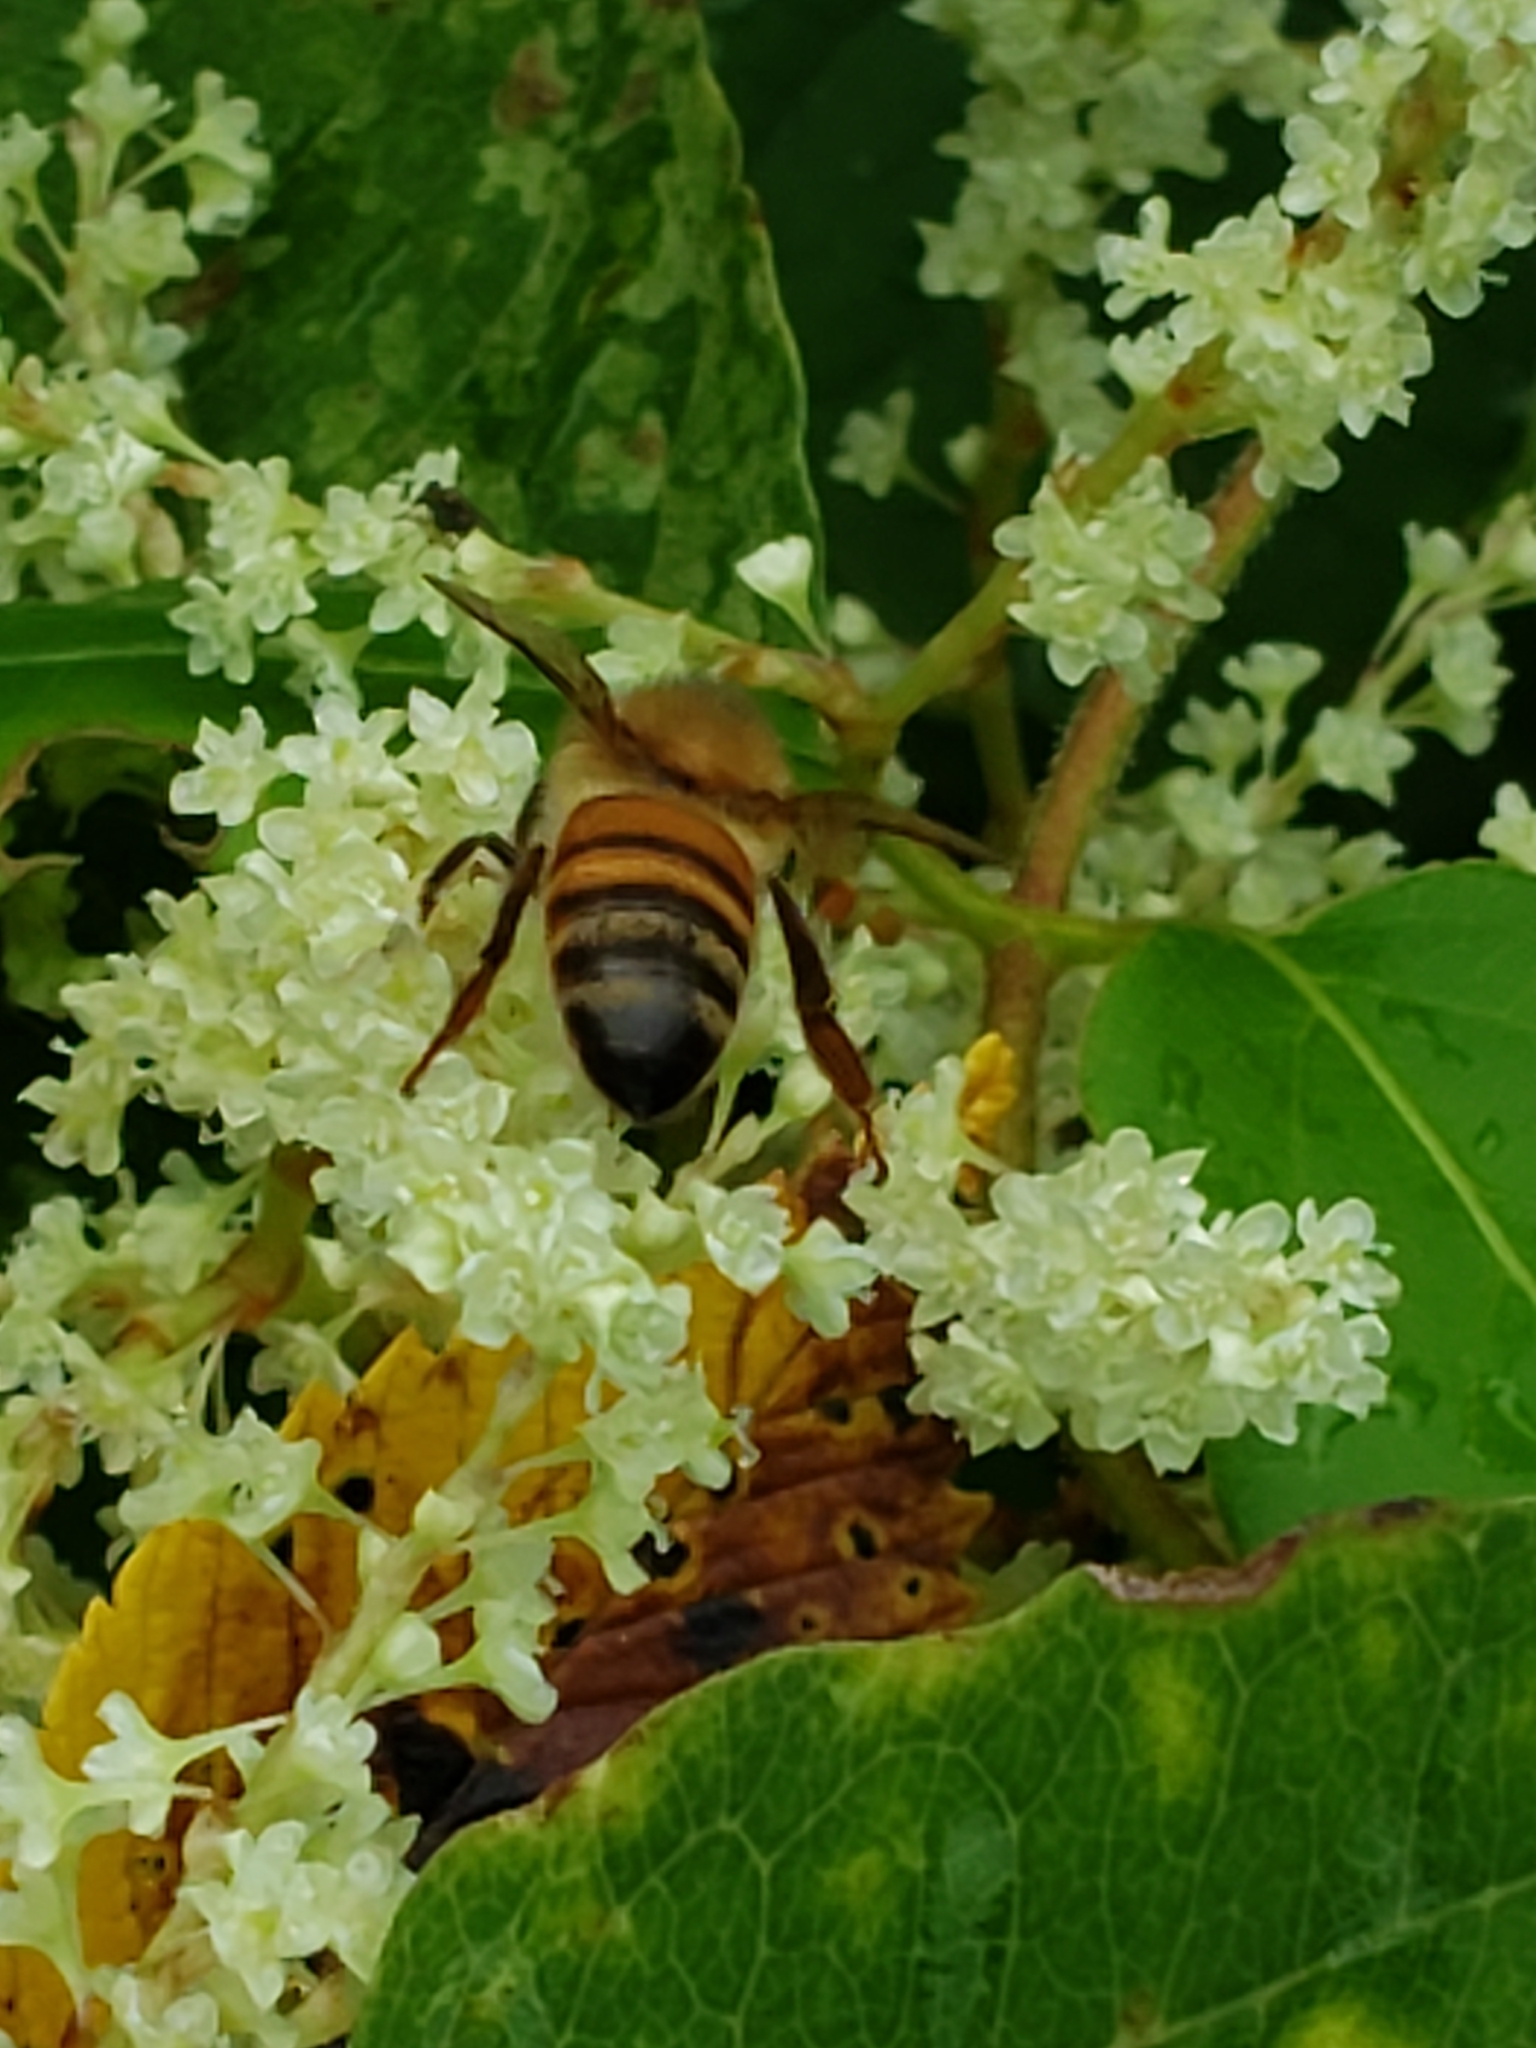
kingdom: Animalia
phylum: Arthropoda
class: Insecta
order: Hymenoptera
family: Apidae
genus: Apis
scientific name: Apis mellifera
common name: Honey bee
